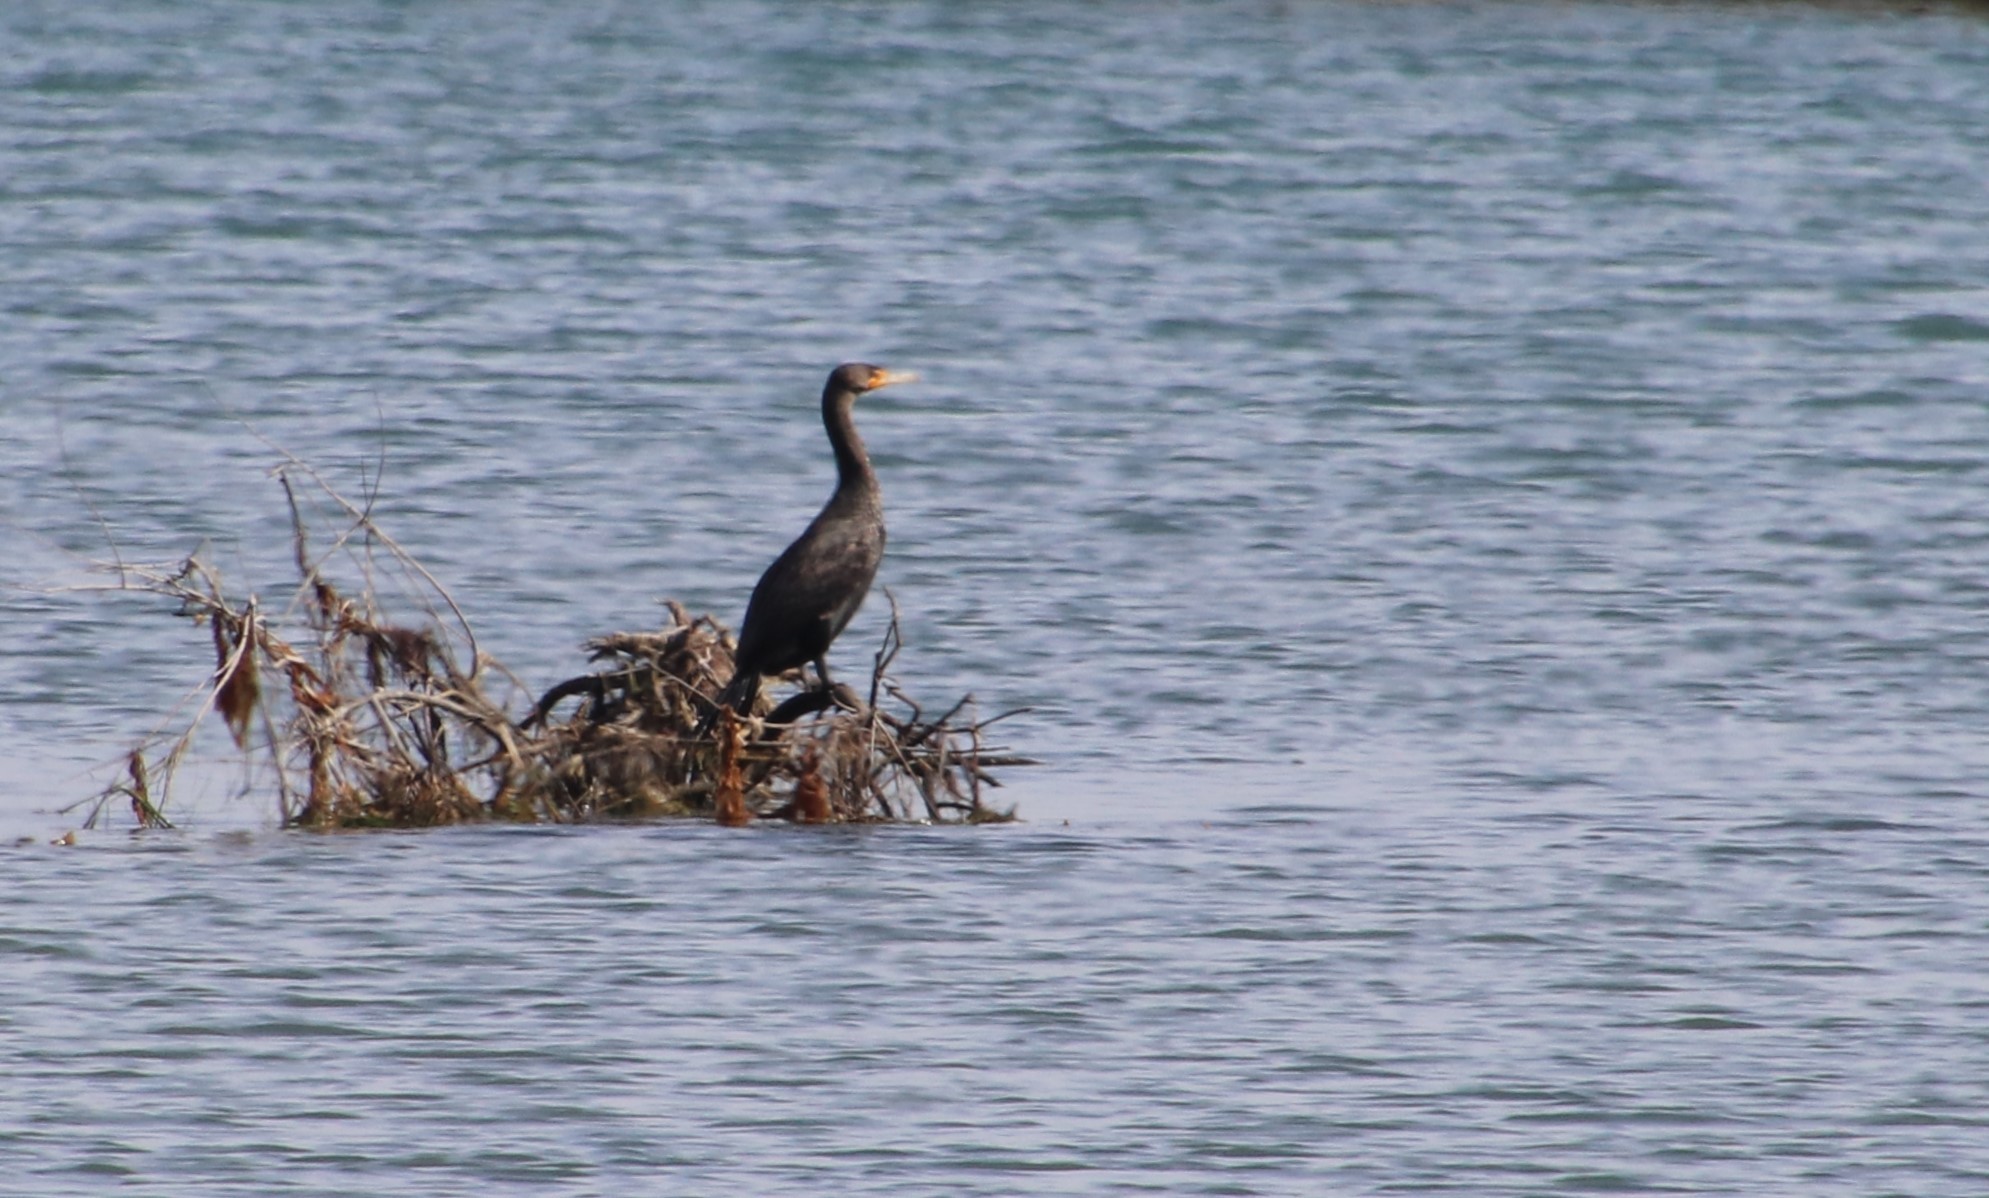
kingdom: Animalia
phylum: Chordata
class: Aves
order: Suliformes
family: Phalacrocoracidae
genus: Phalacrocorax
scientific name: Phalacrocorax auritus
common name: Double-crested cormorant
